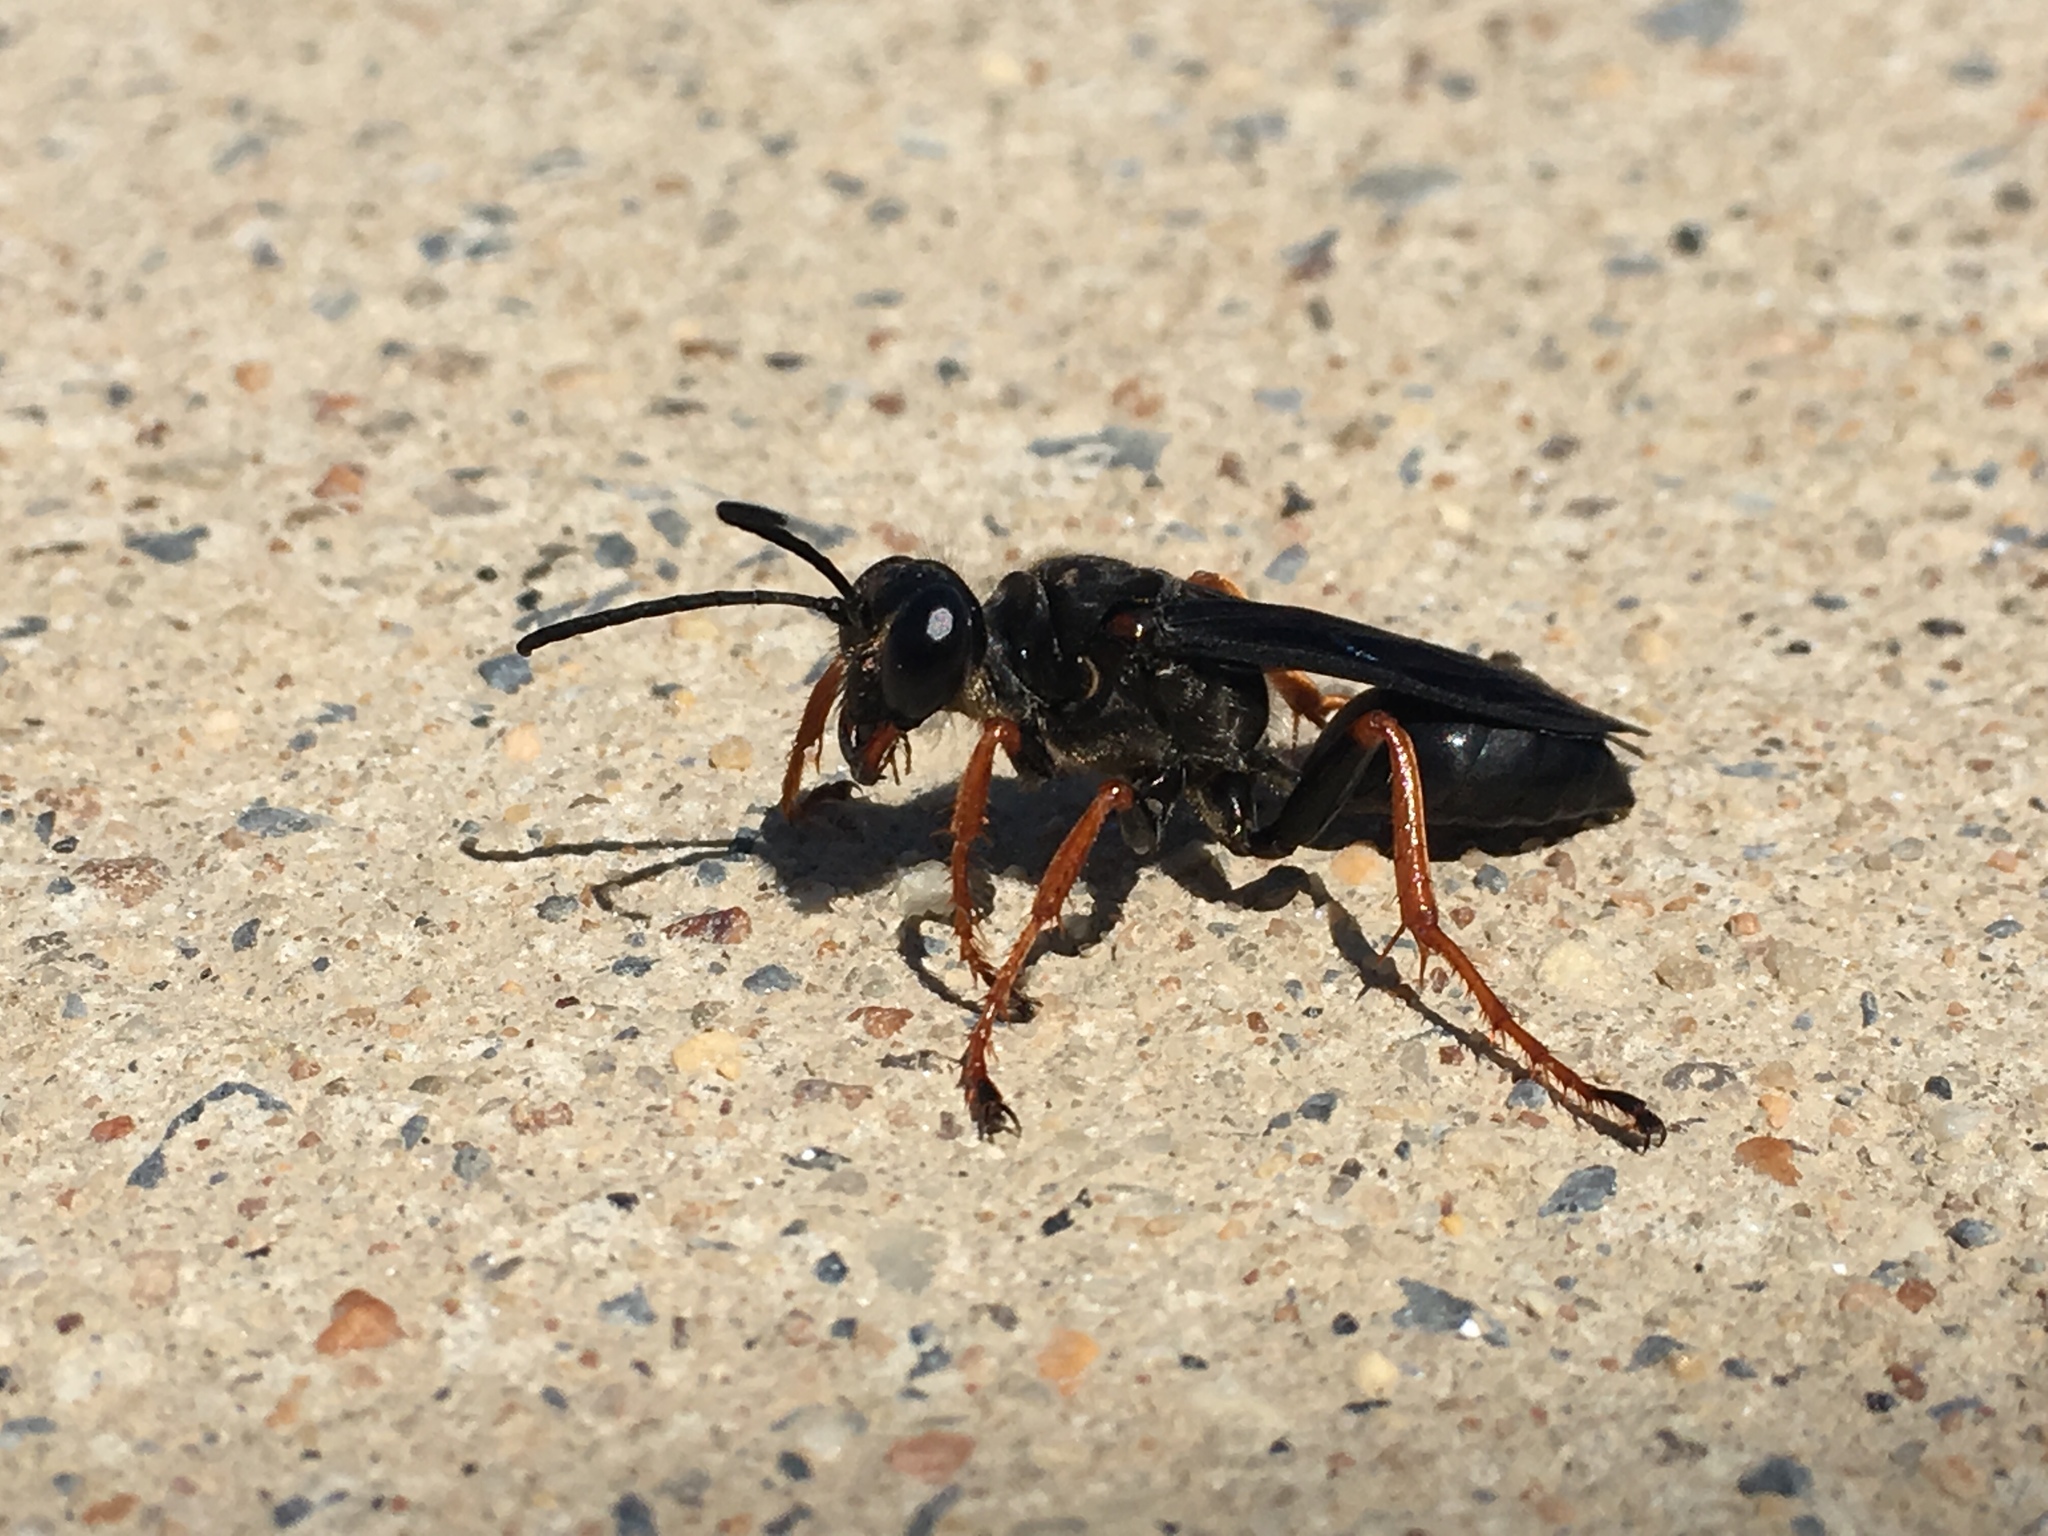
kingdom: Animalia
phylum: Arthropoda
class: Insecta
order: Hymenoptera
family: Sphecidae
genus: Sphex
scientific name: Sphex nudus
